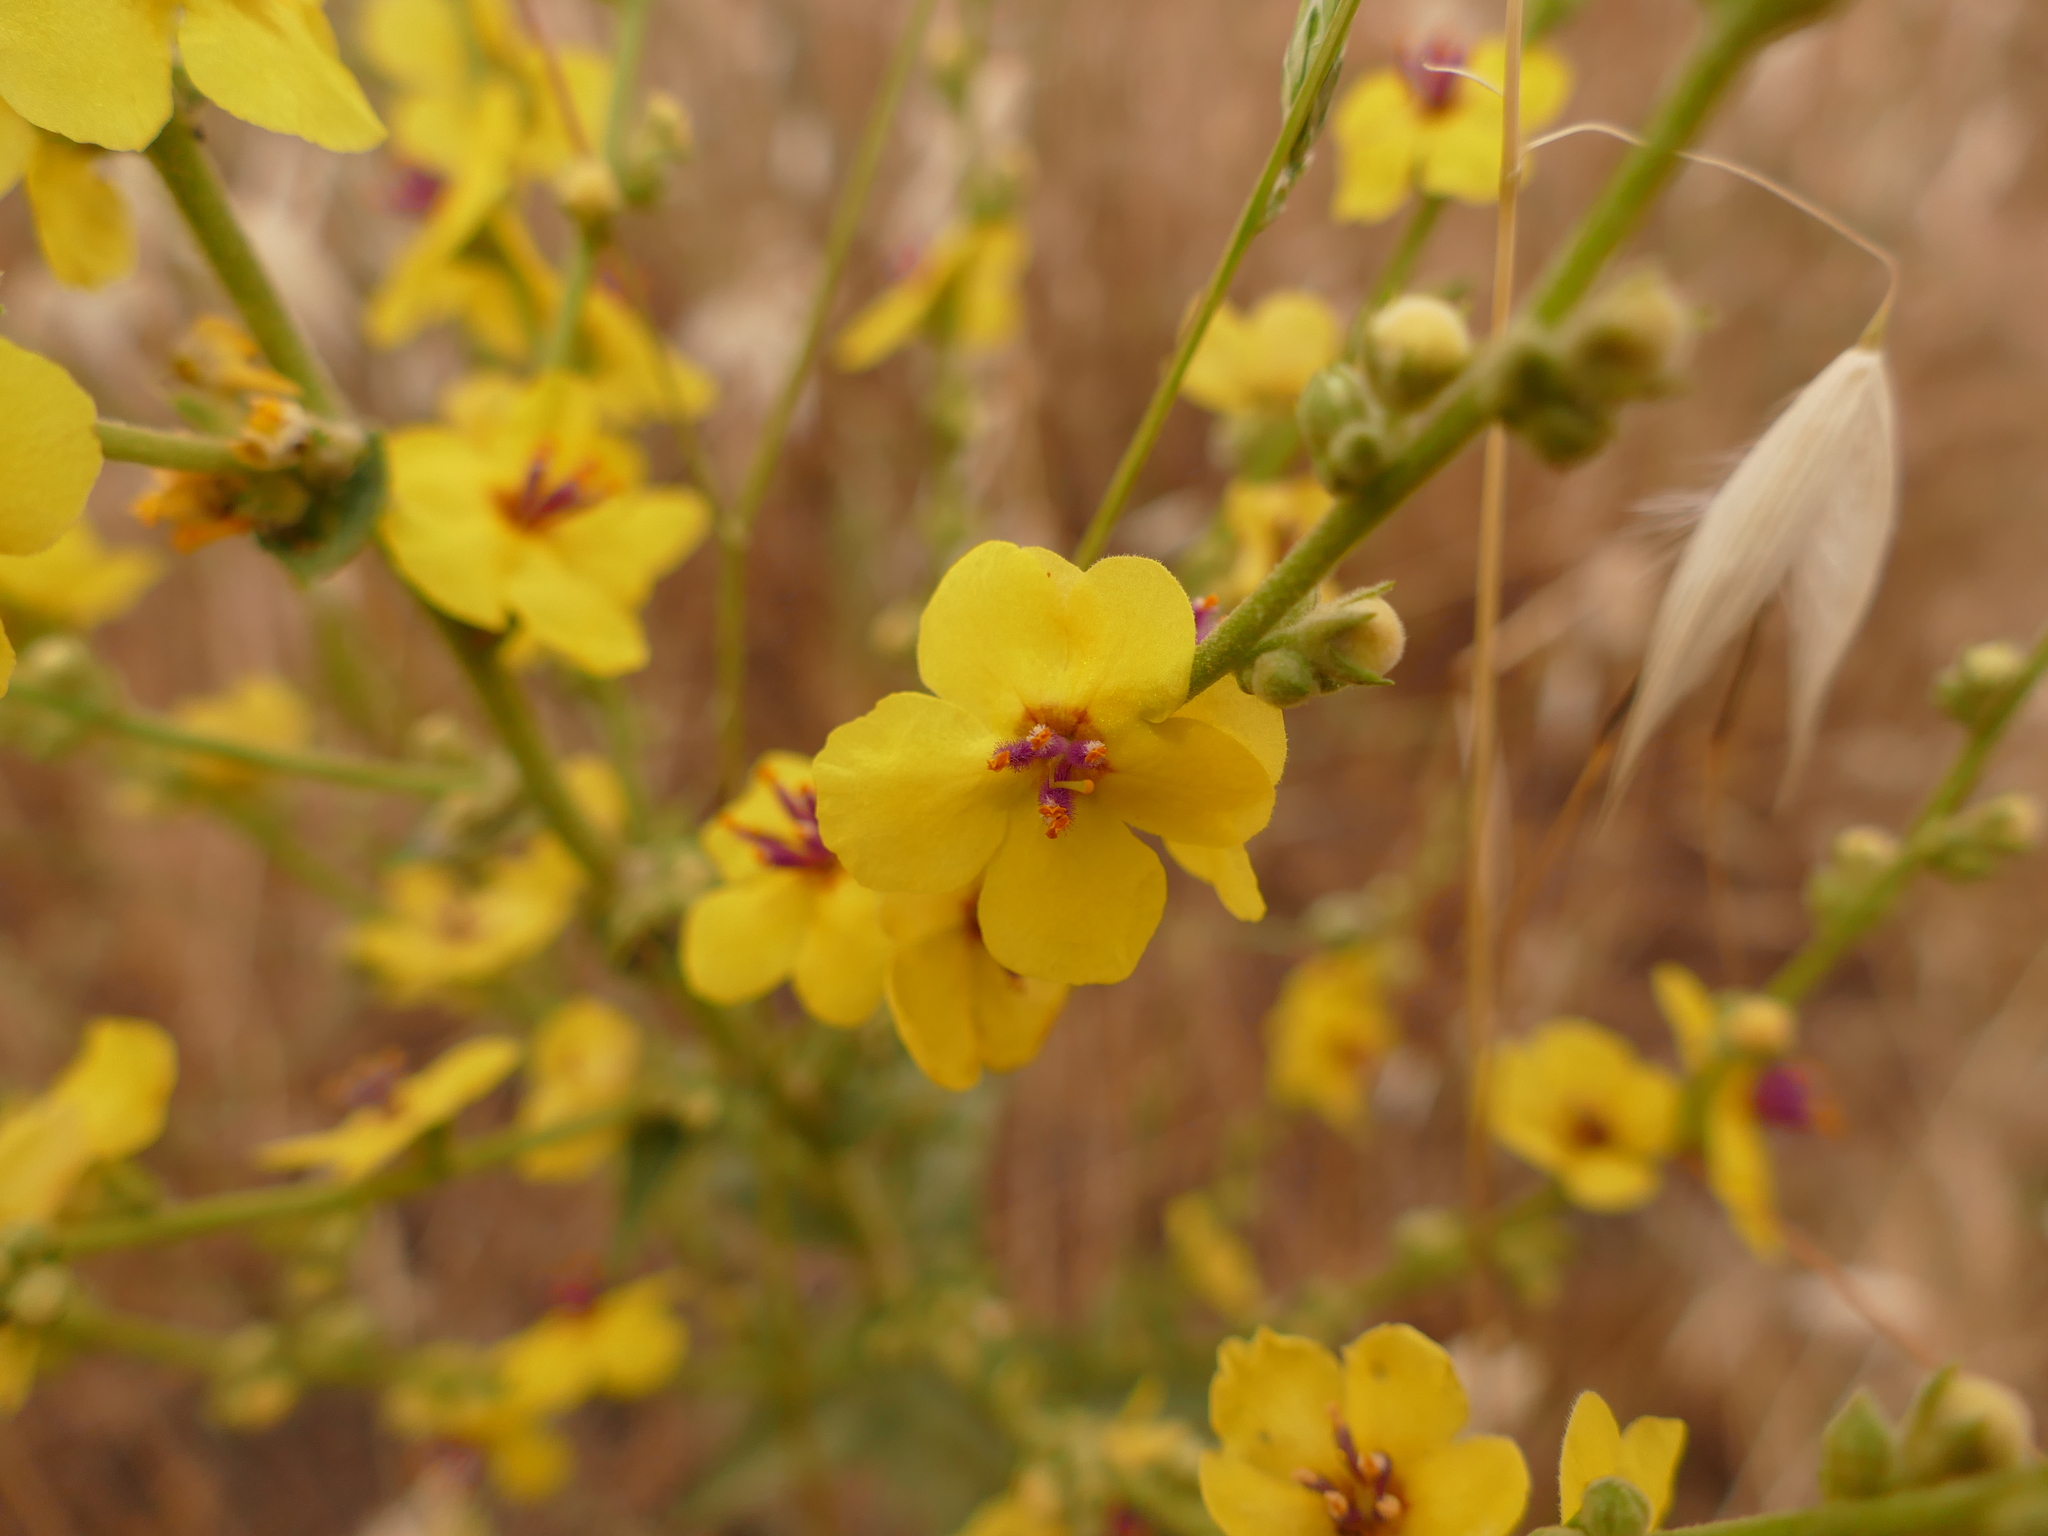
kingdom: Plantae
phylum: Tracheophyta
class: Magnoliopsida
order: Lamiales
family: Scrophulariaceae
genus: Verbascum
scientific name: Verbascum sinuatum
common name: Wavyleaf mullein
